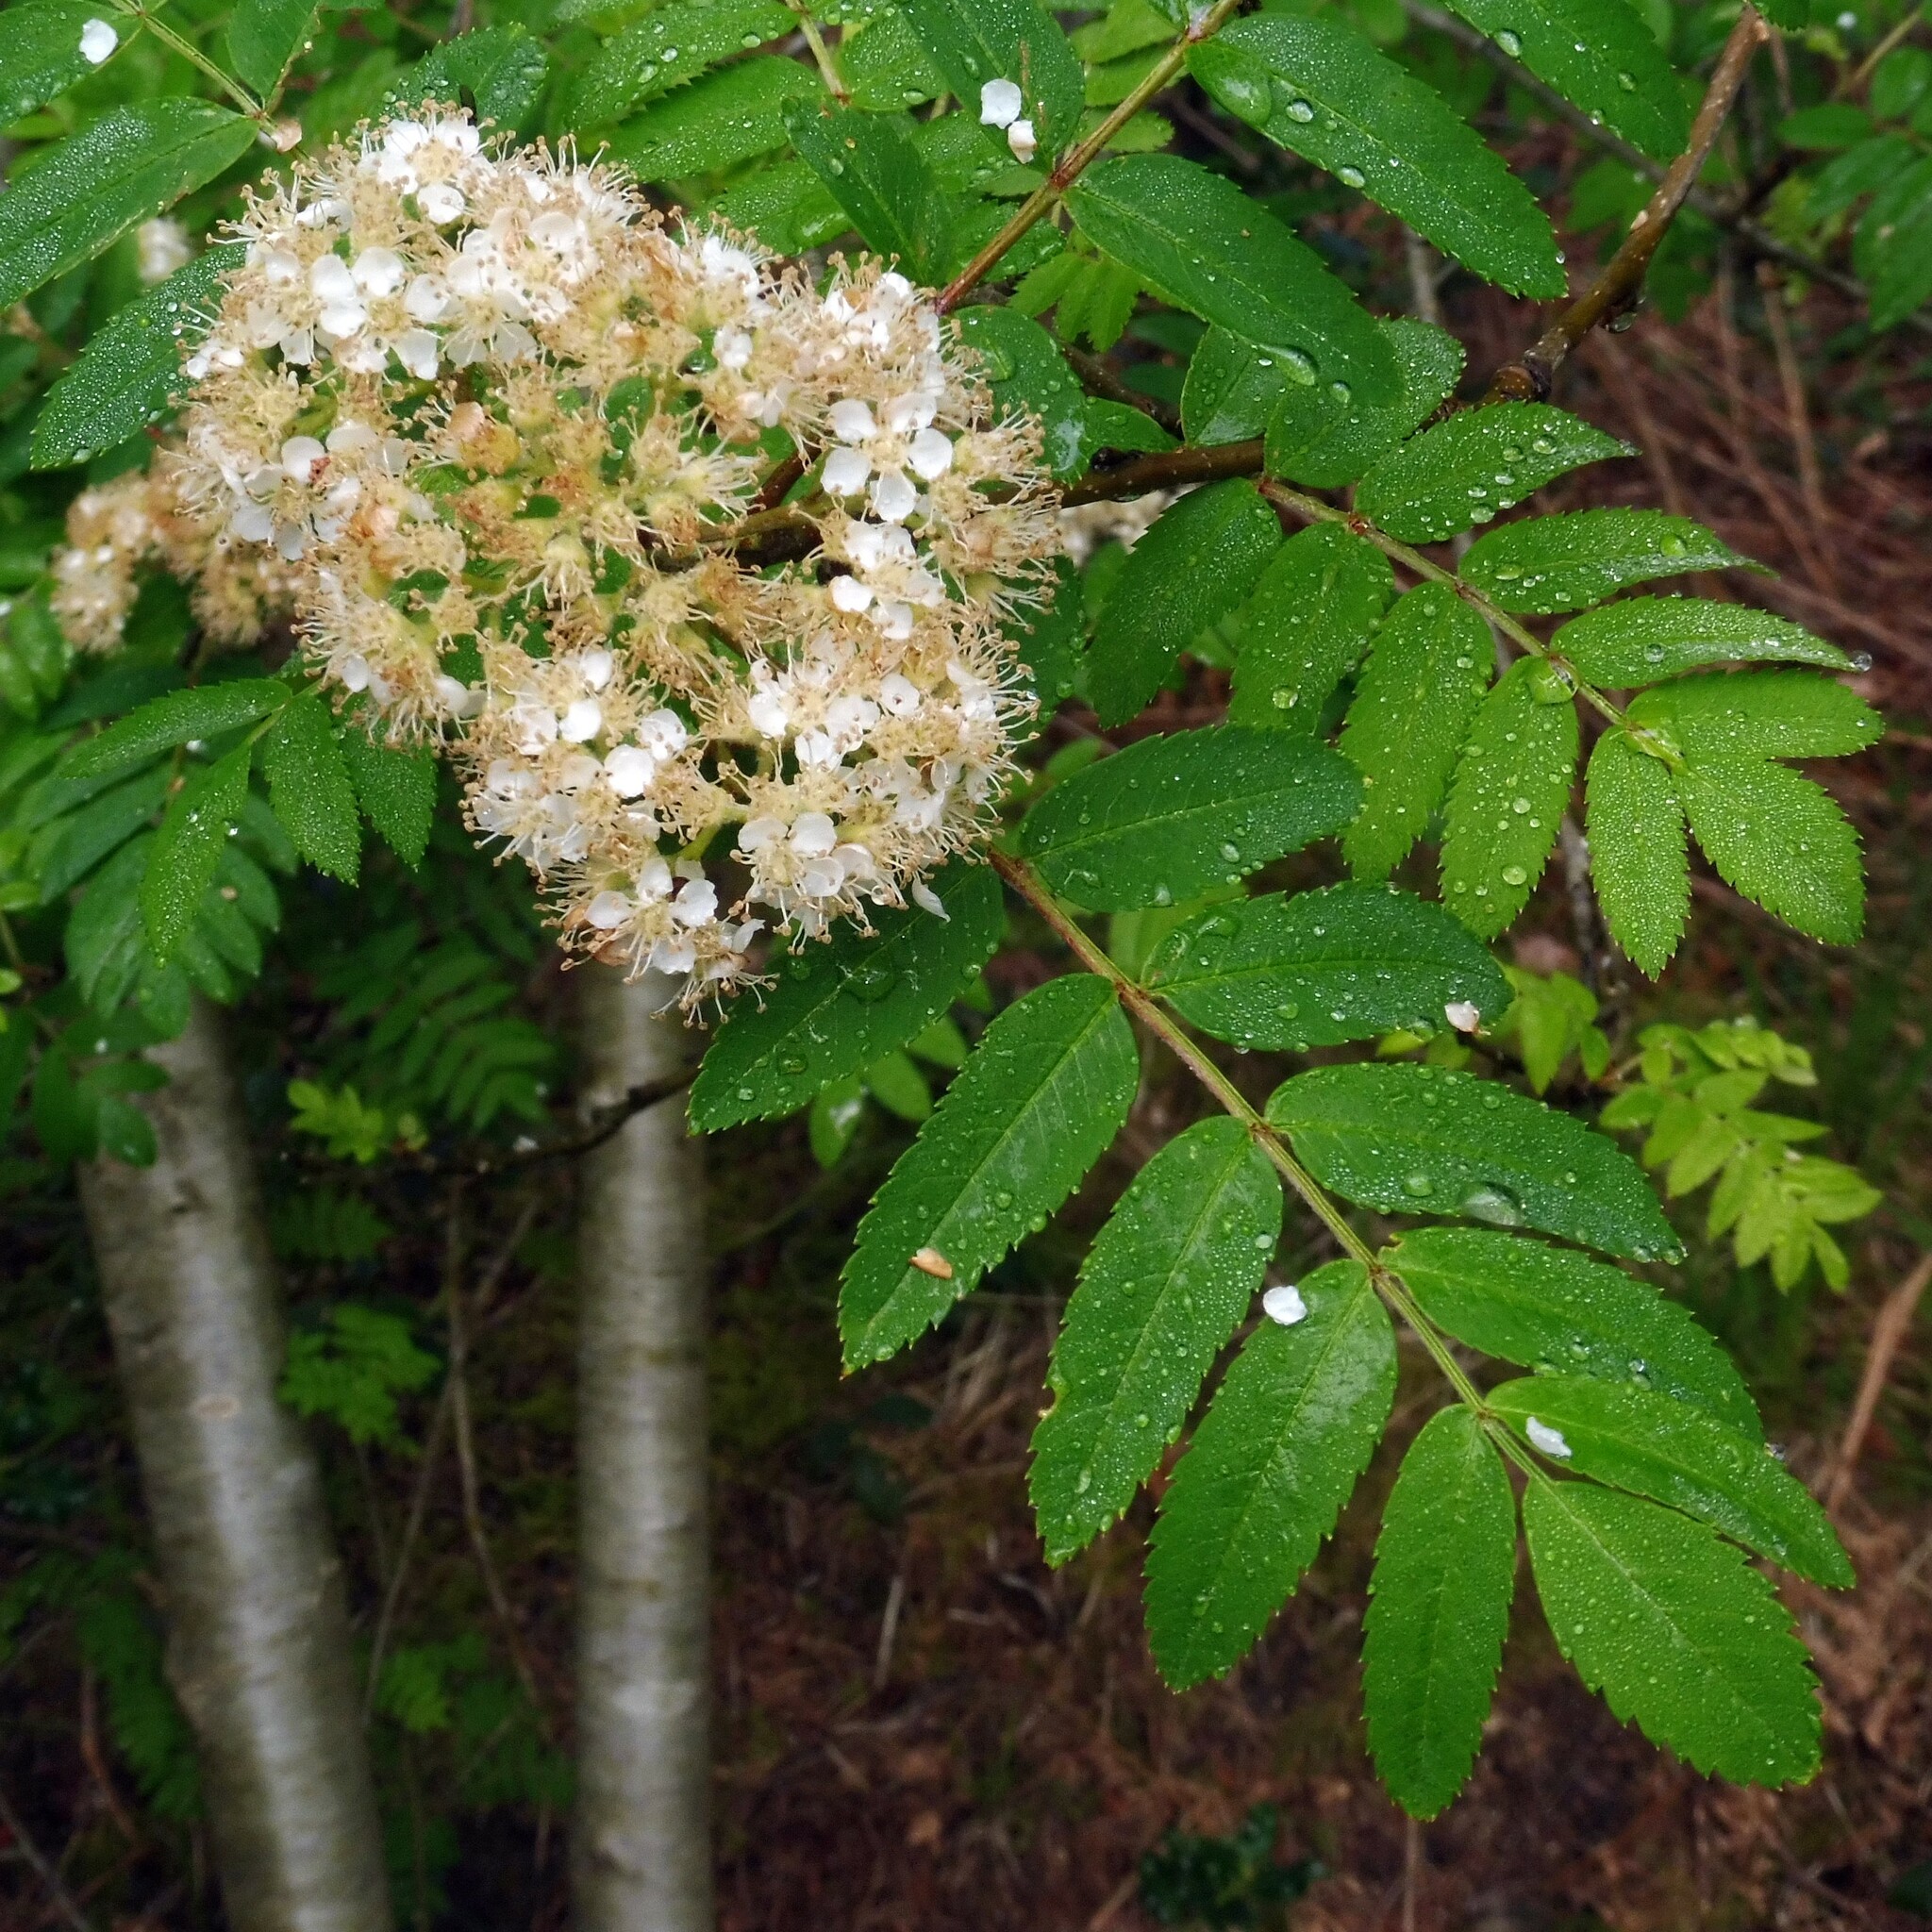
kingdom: Plantae
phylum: Tracheophyta
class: Magnoliopsida
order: Rosales
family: Rosaceae
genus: Sorbus
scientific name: Sorbus aucuparia
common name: Rowan
